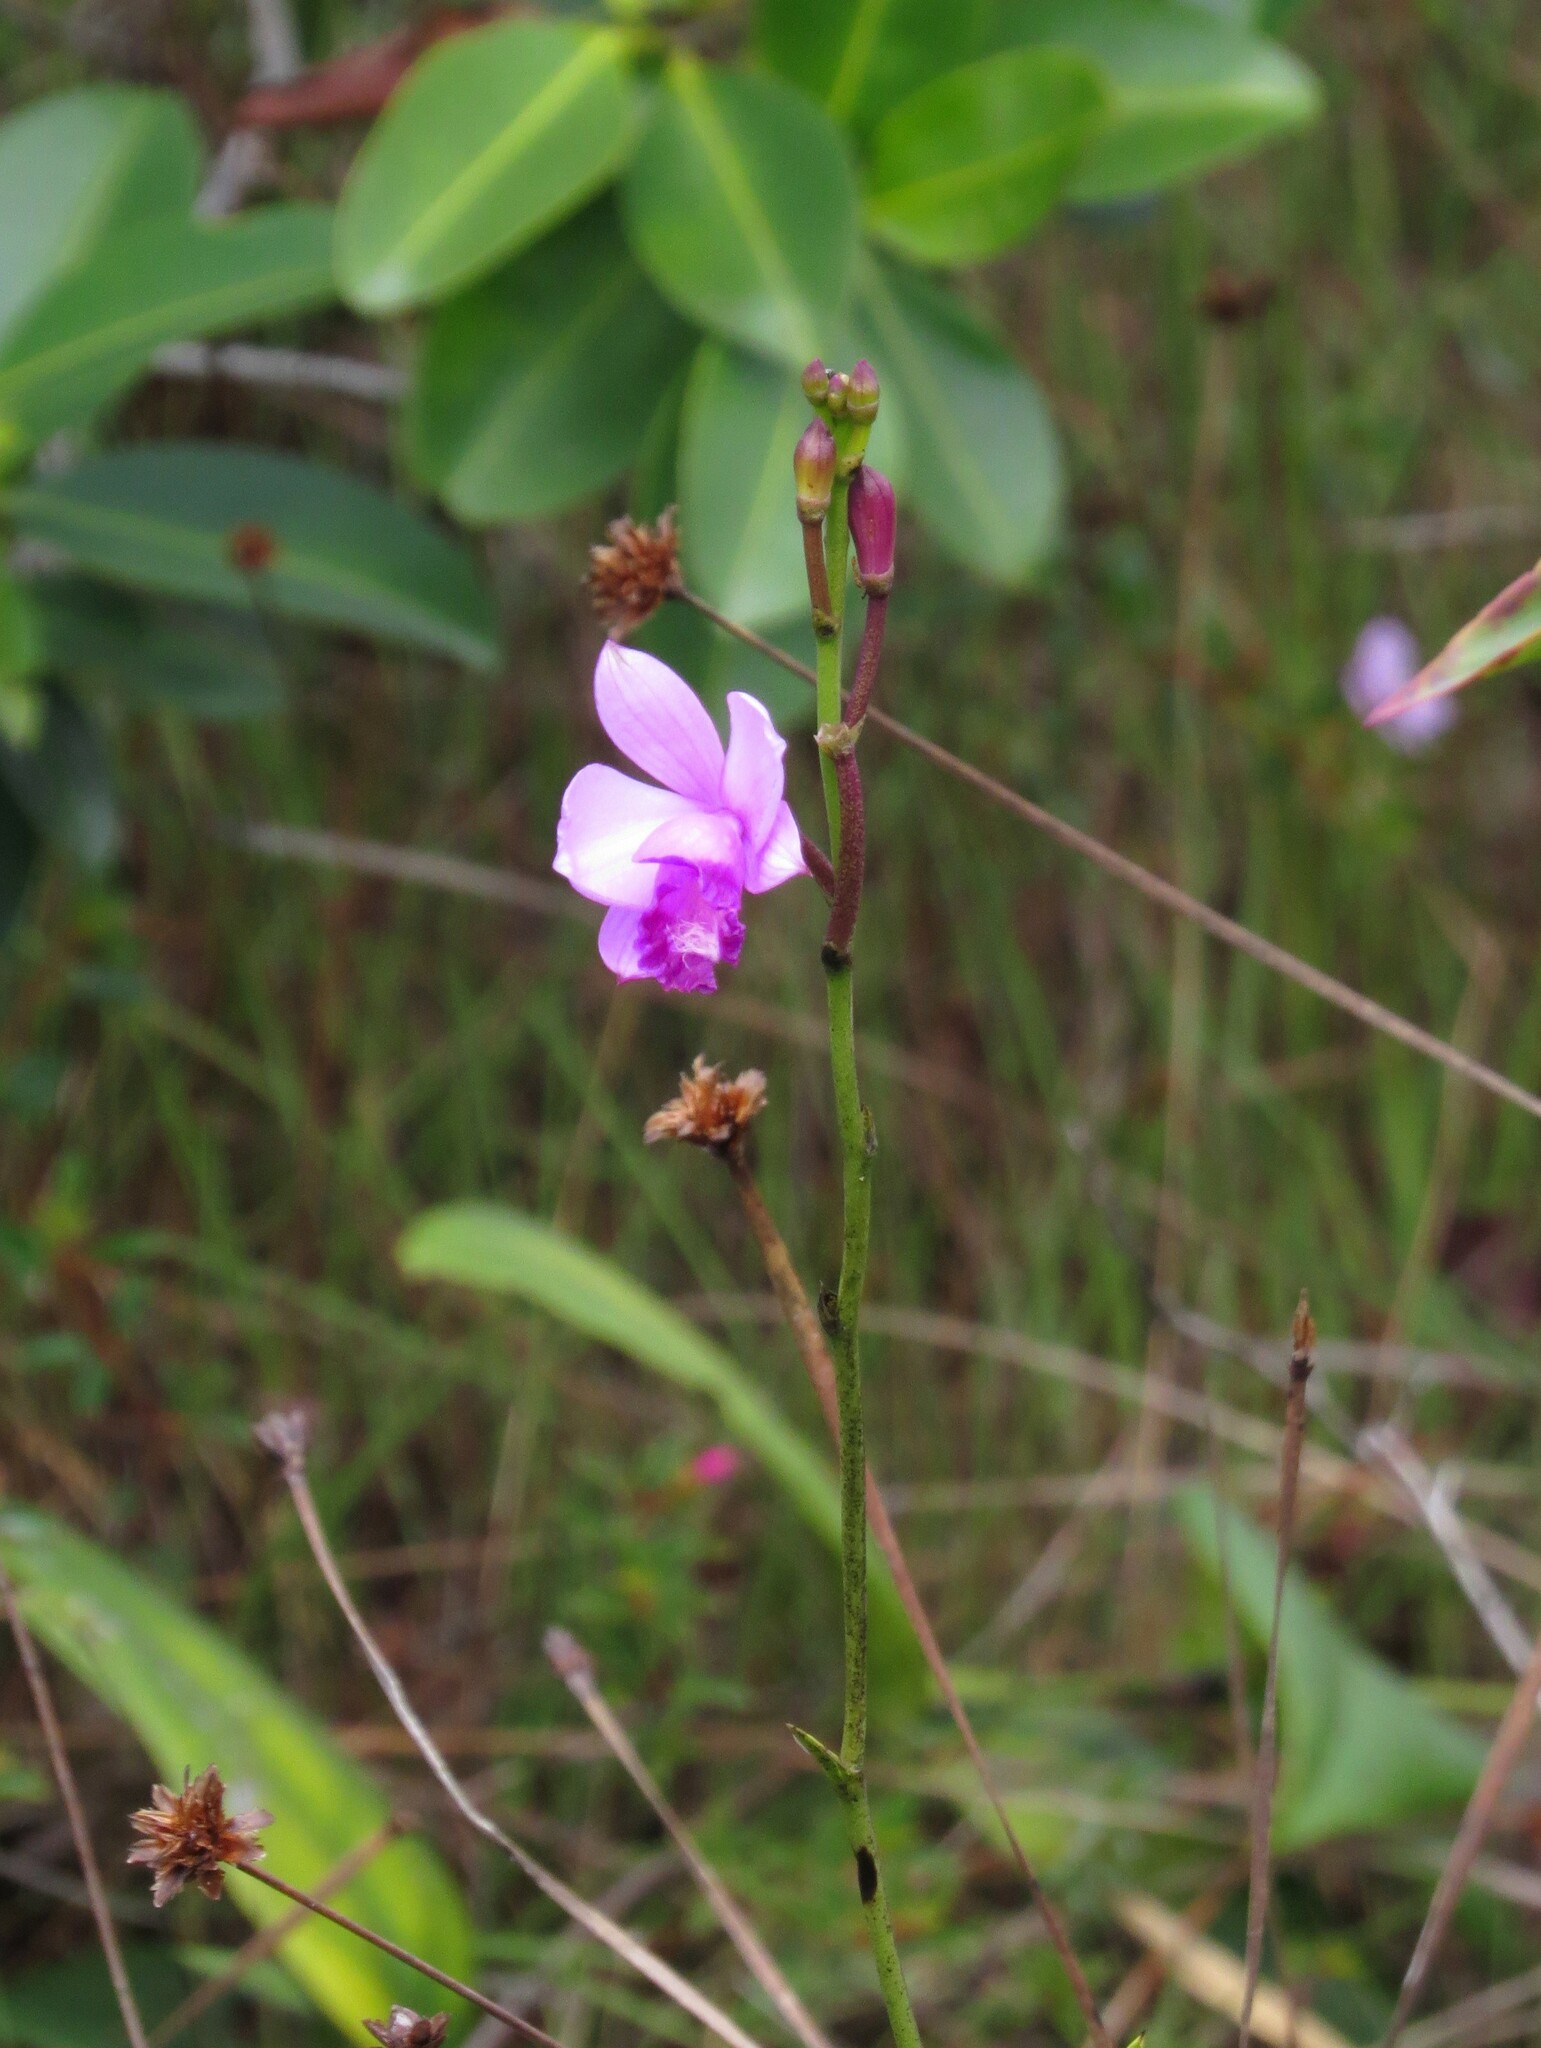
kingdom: Plantae
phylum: Tracheophyta
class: Liliopsida
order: Asparagales
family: Orchidaceae
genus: Epistephium
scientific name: Epistephium subrepens
